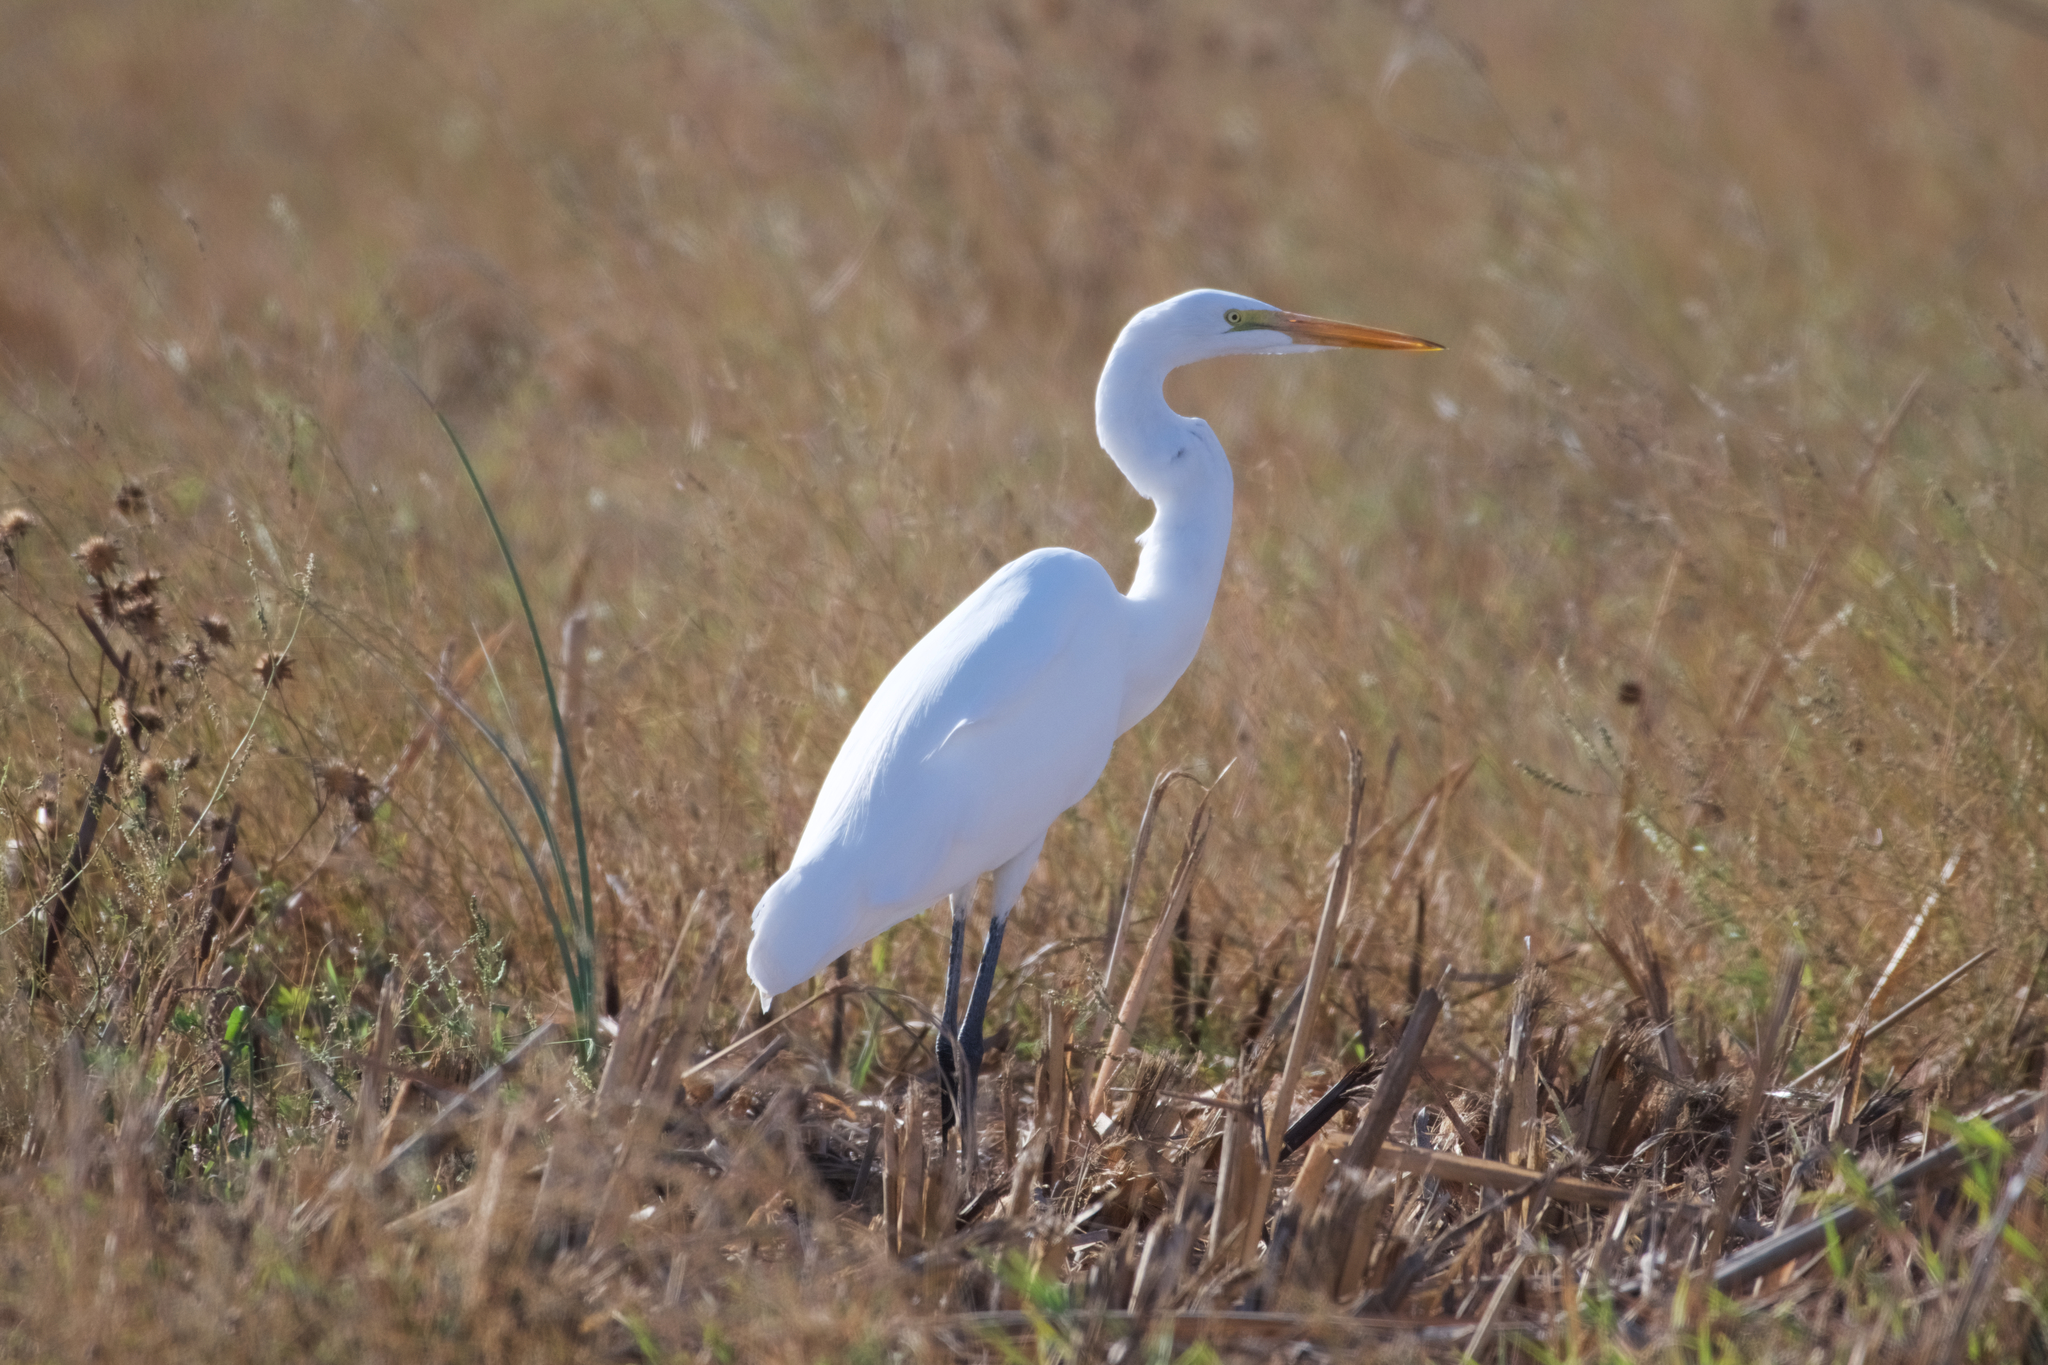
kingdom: Animalia
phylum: Chordata
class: Aves
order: Pelecaniformes
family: Ardeidae
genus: Ardea
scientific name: Ardea alba
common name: Great egret
